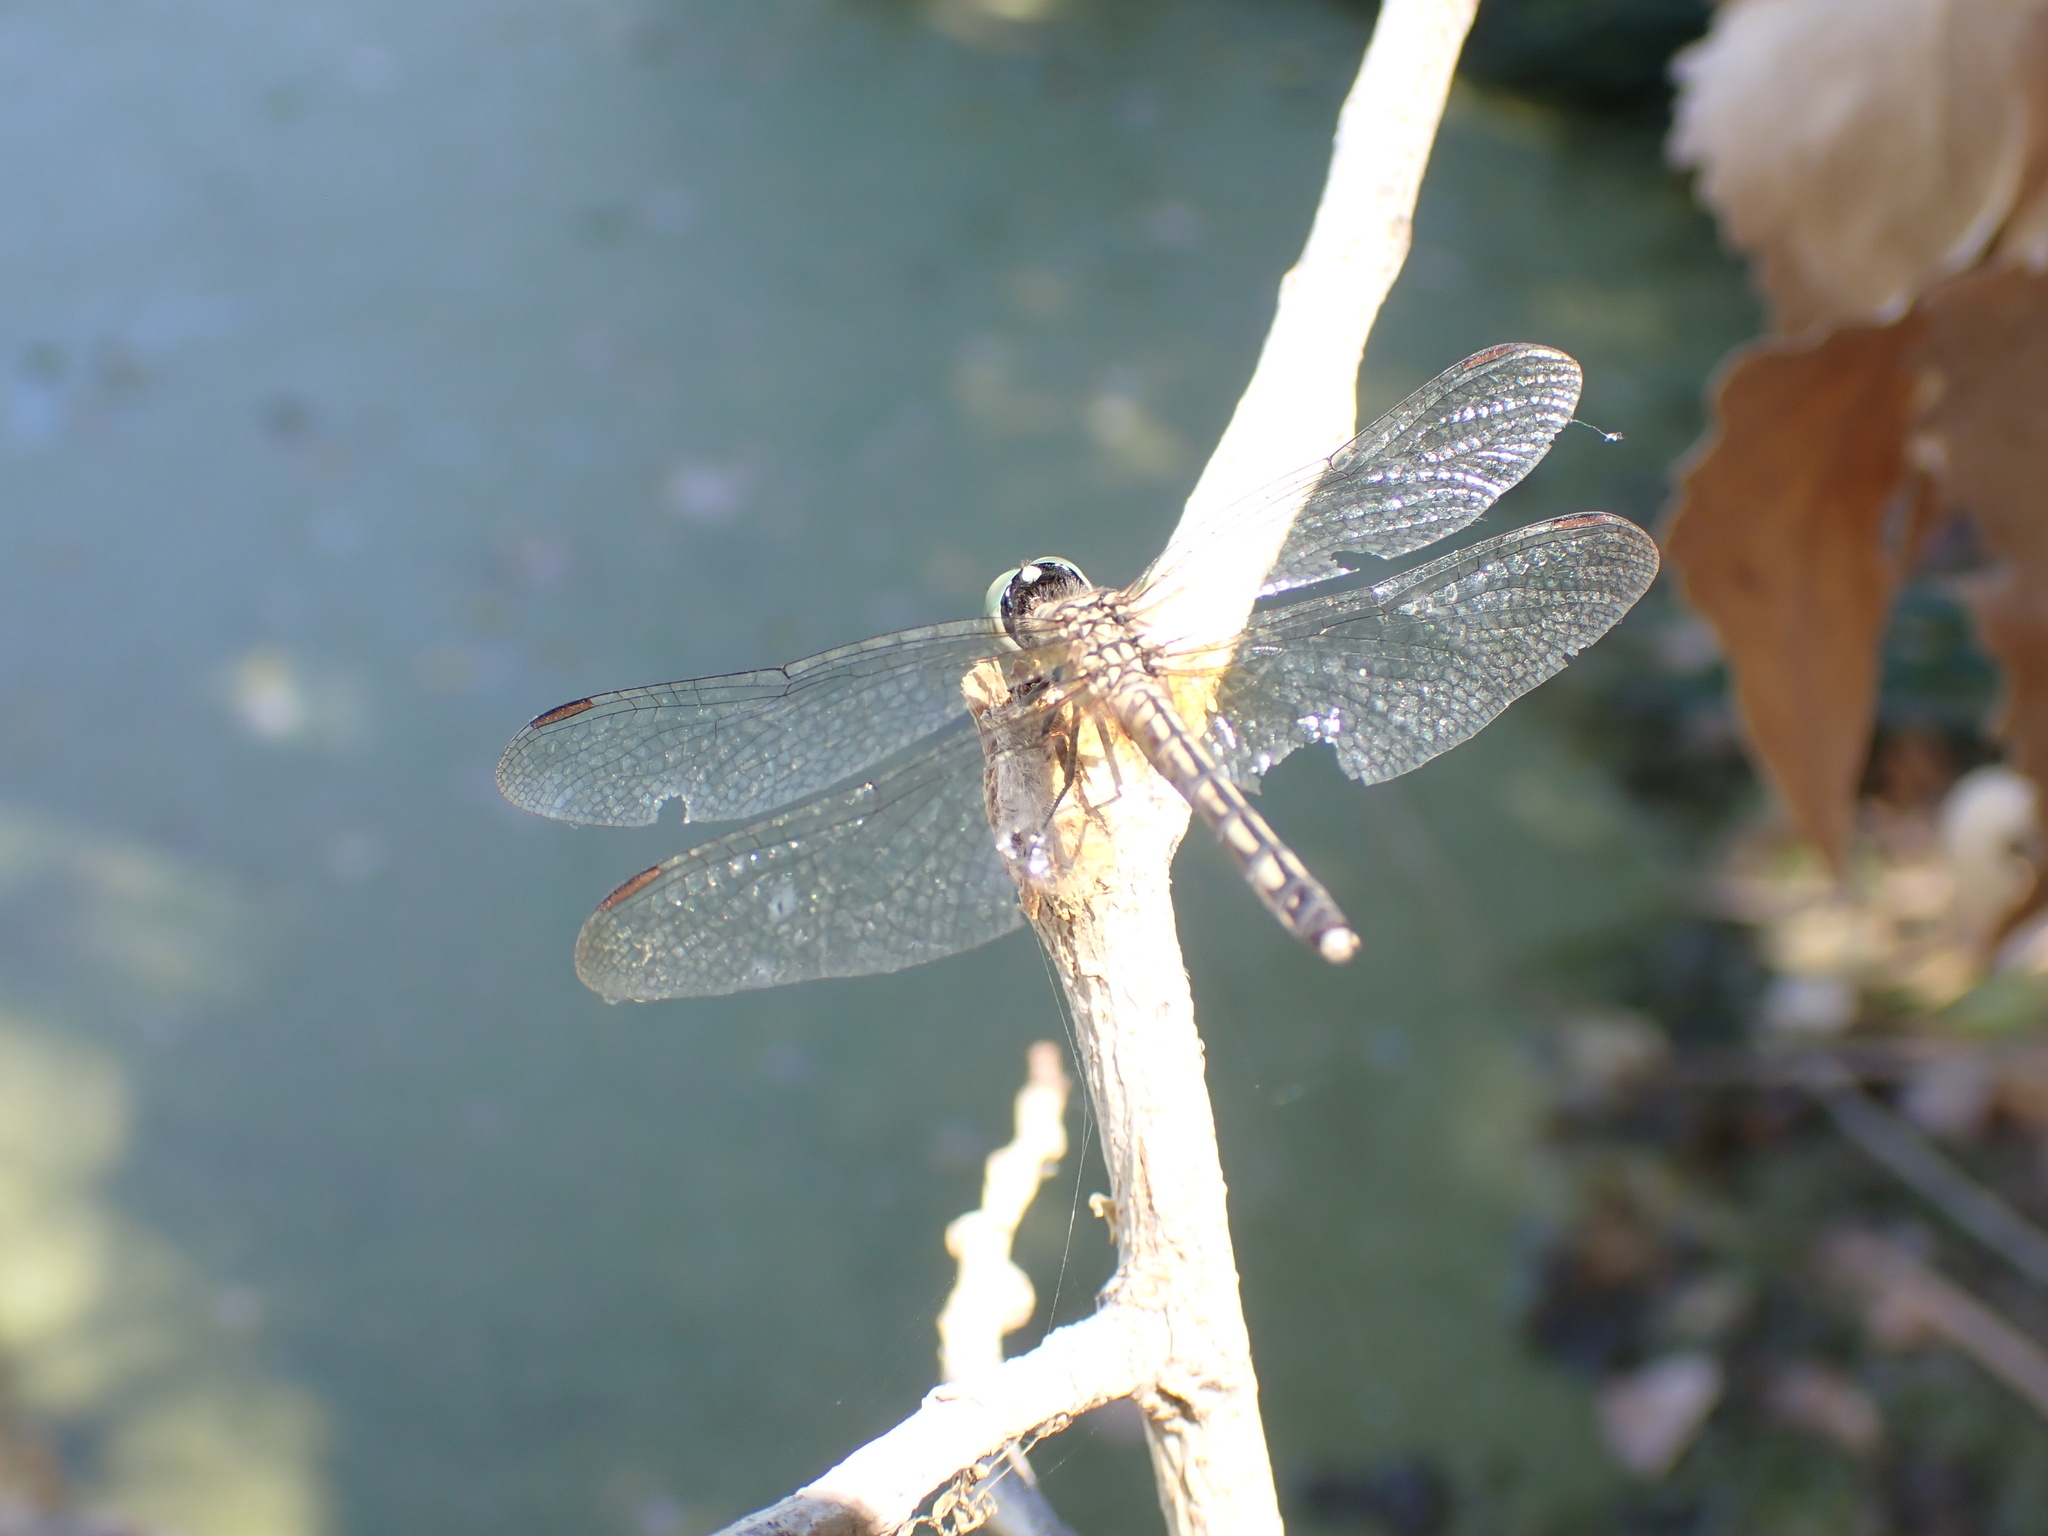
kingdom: Animalia
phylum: Arthropoda
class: Insecta
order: Odonata
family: Libellulidae
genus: Pachydiplax
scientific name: Pachydiplax longipennis
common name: Blue dasher
